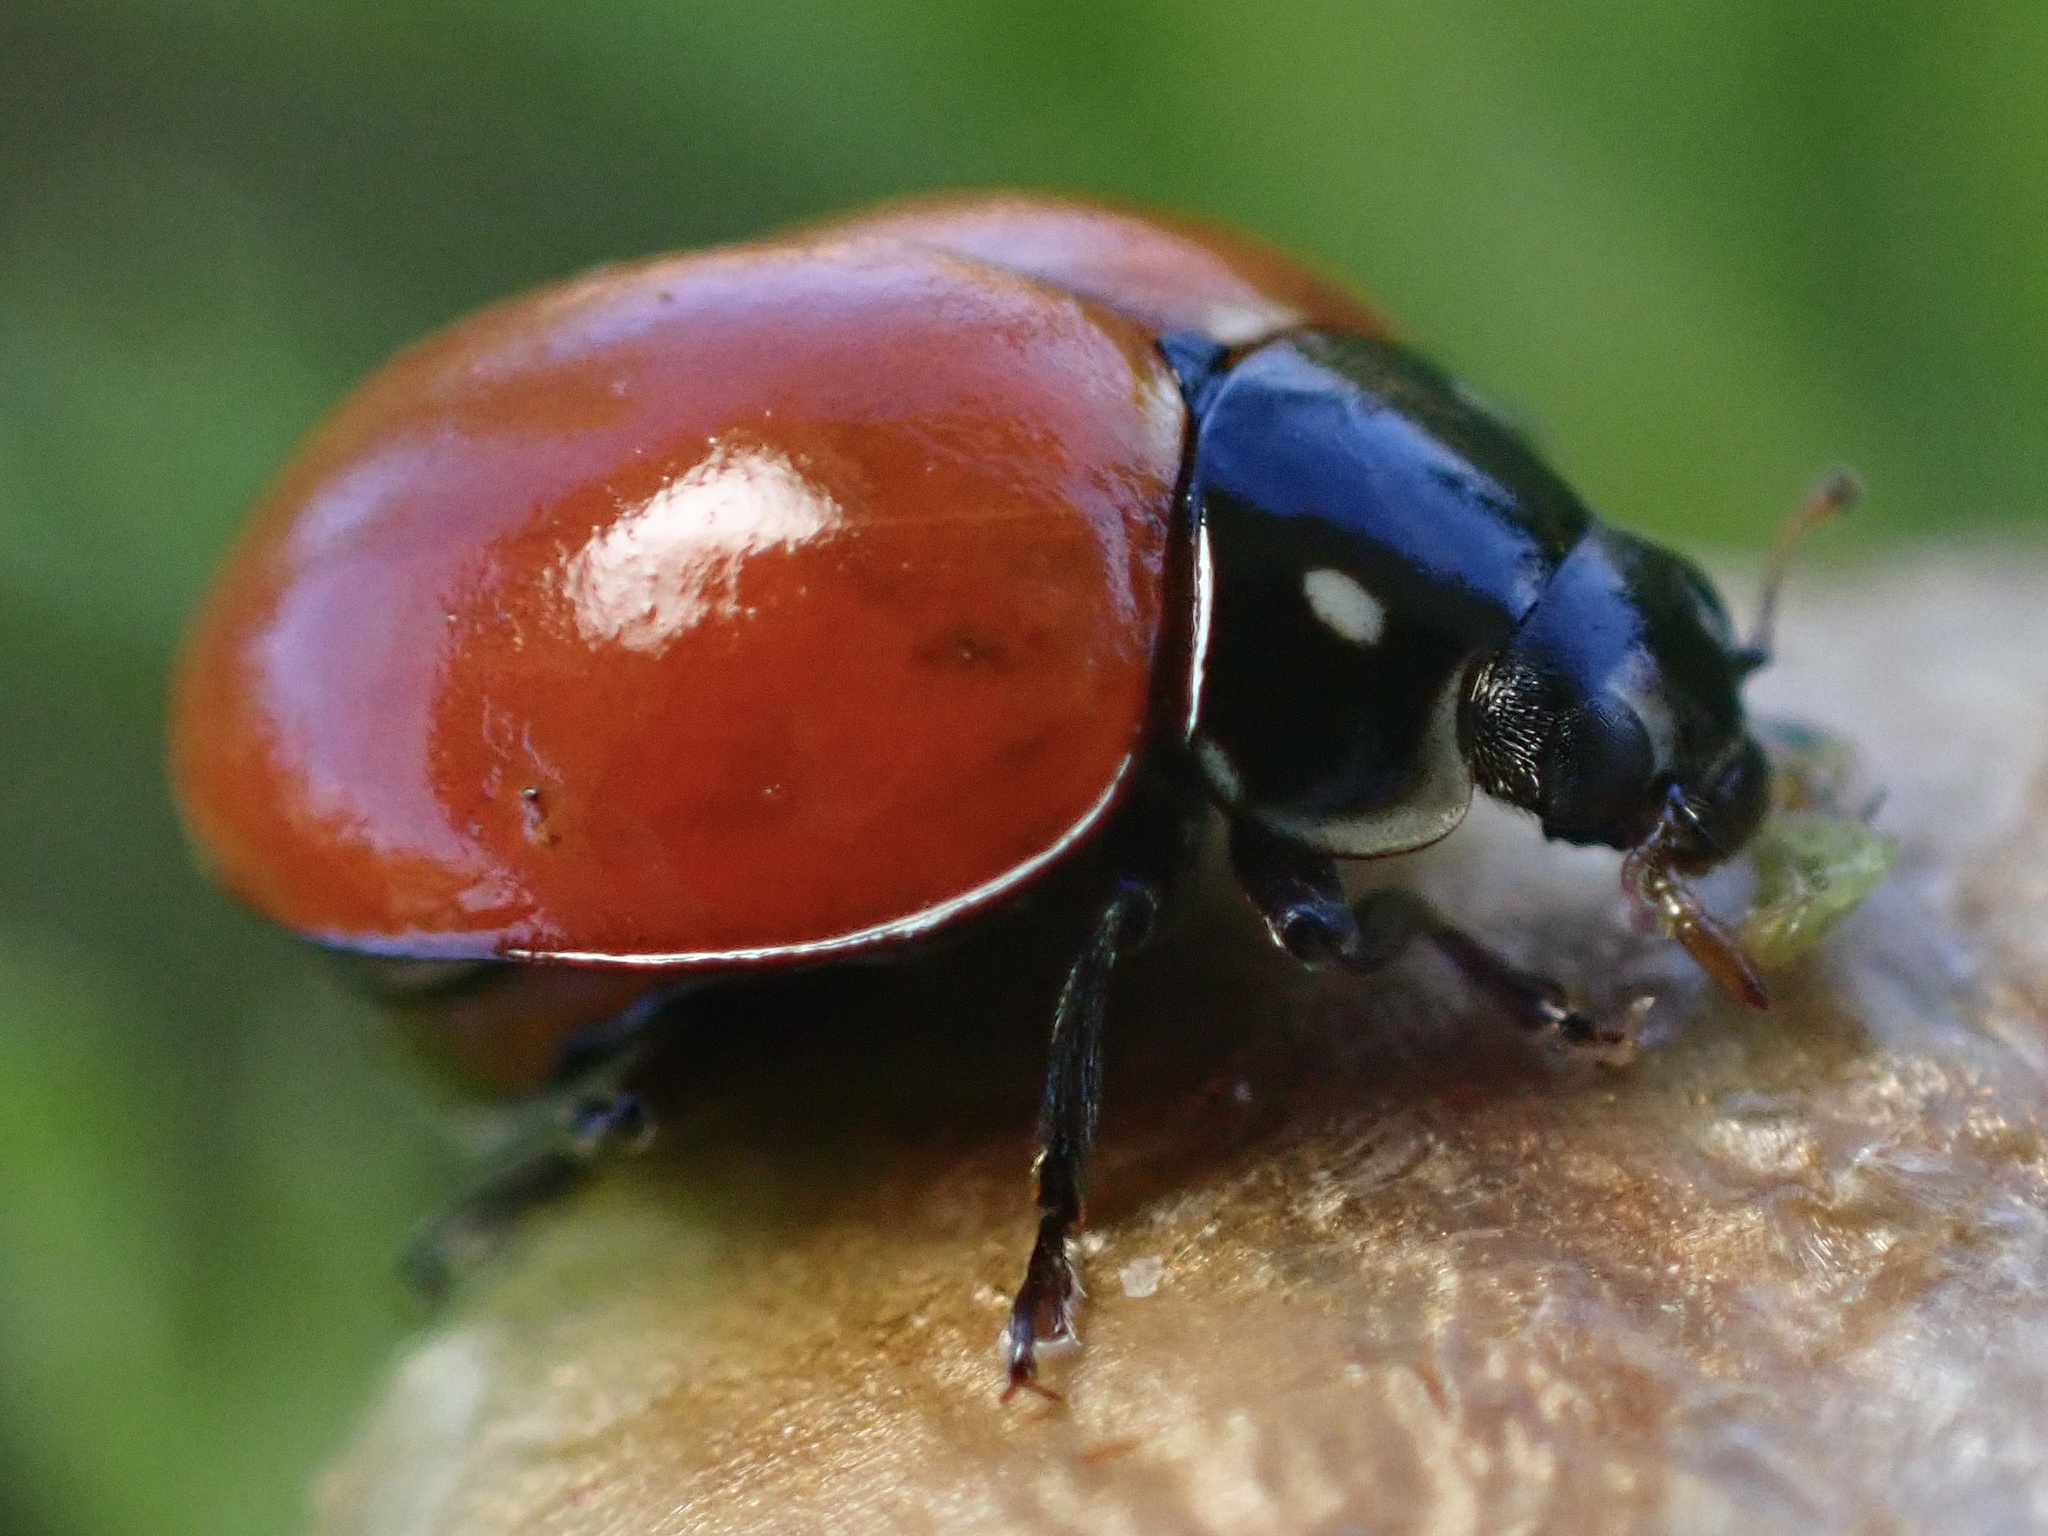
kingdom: Animalia
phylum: Arthropoda
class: Insecta
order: Coleoptera
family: Coccinellidae
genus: Cycloneda
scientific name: Cycloneda sanguinea
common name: Ladybird beetle
